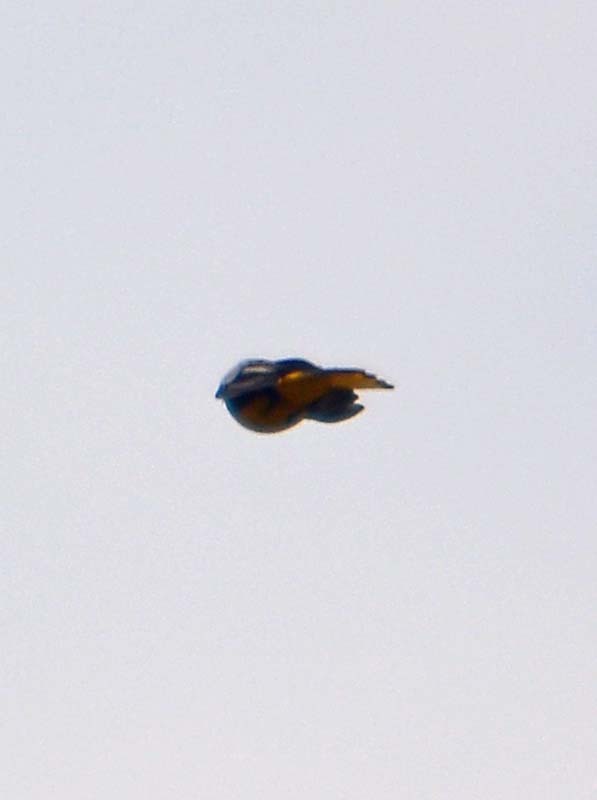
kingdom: Animalia
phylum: Chordata
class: Aves
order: Passeriformes
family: Icteridae
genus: Icterus
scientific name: Icterus abeillei
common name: Black-backed oriole
